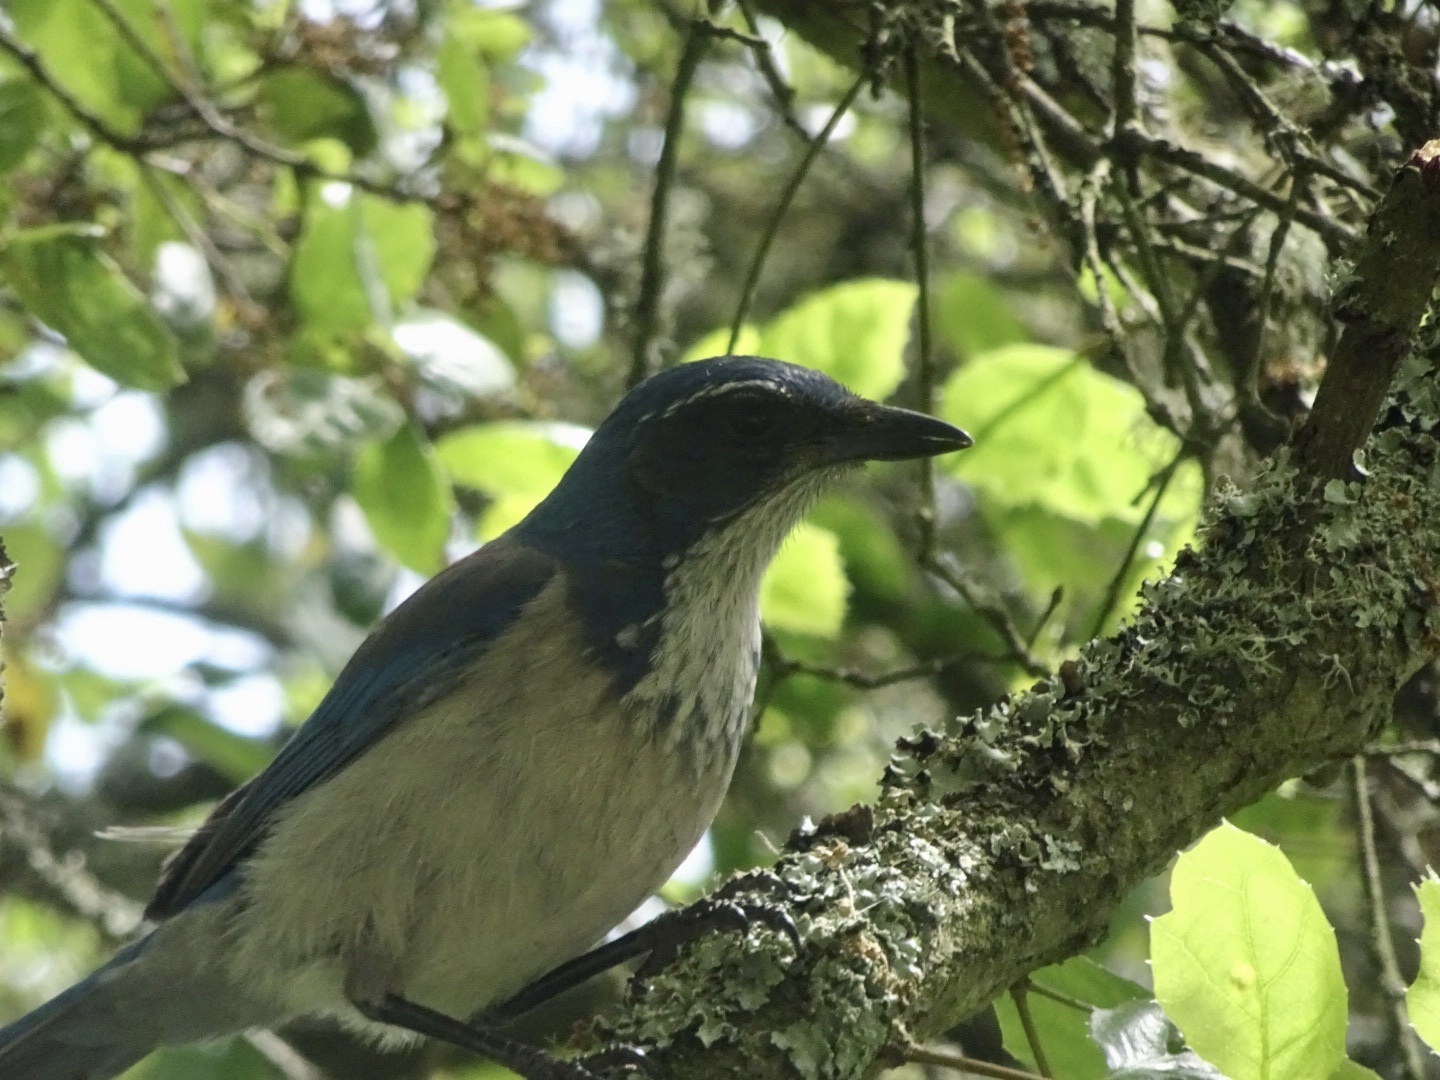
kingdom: Animalia
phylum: Chordata
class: Aves
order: Passeriformes
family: Corvidae
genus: Aphelocoma
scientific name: Aphelocoma californica
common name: California scrub-jay
